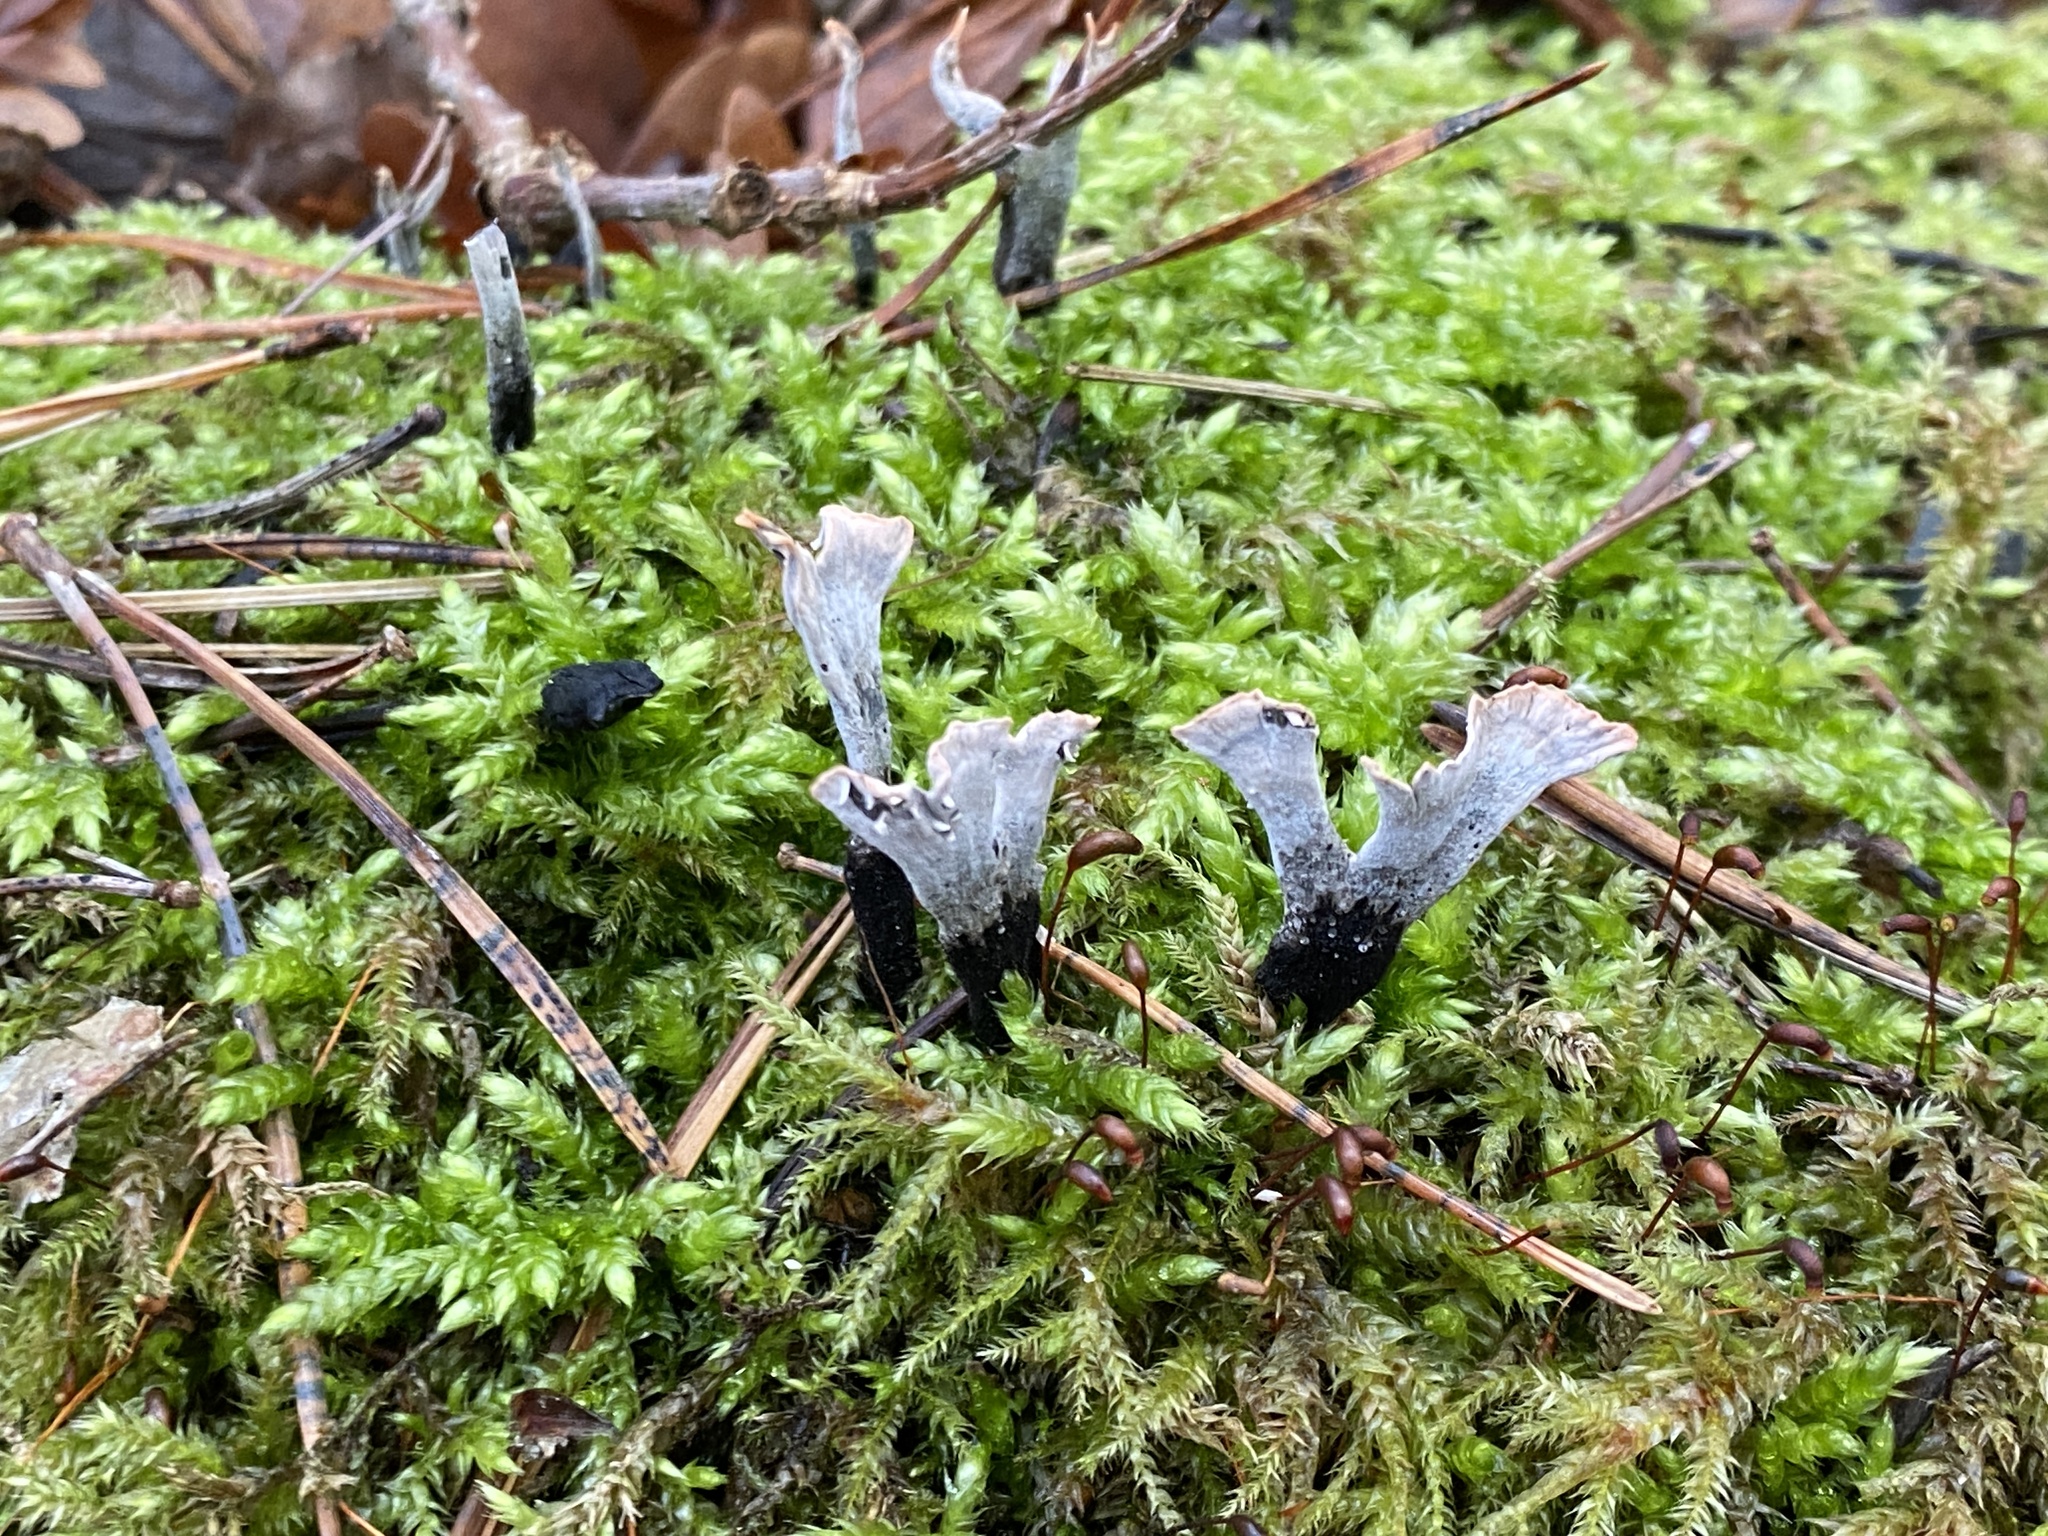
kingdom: Fungi
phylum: Ascomycota
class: Sordariomycetes
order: Xylariales
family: Xylariaceae
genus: Xylaria
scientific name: Xylaria hypoxylon
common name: Candle-snuff fungus
